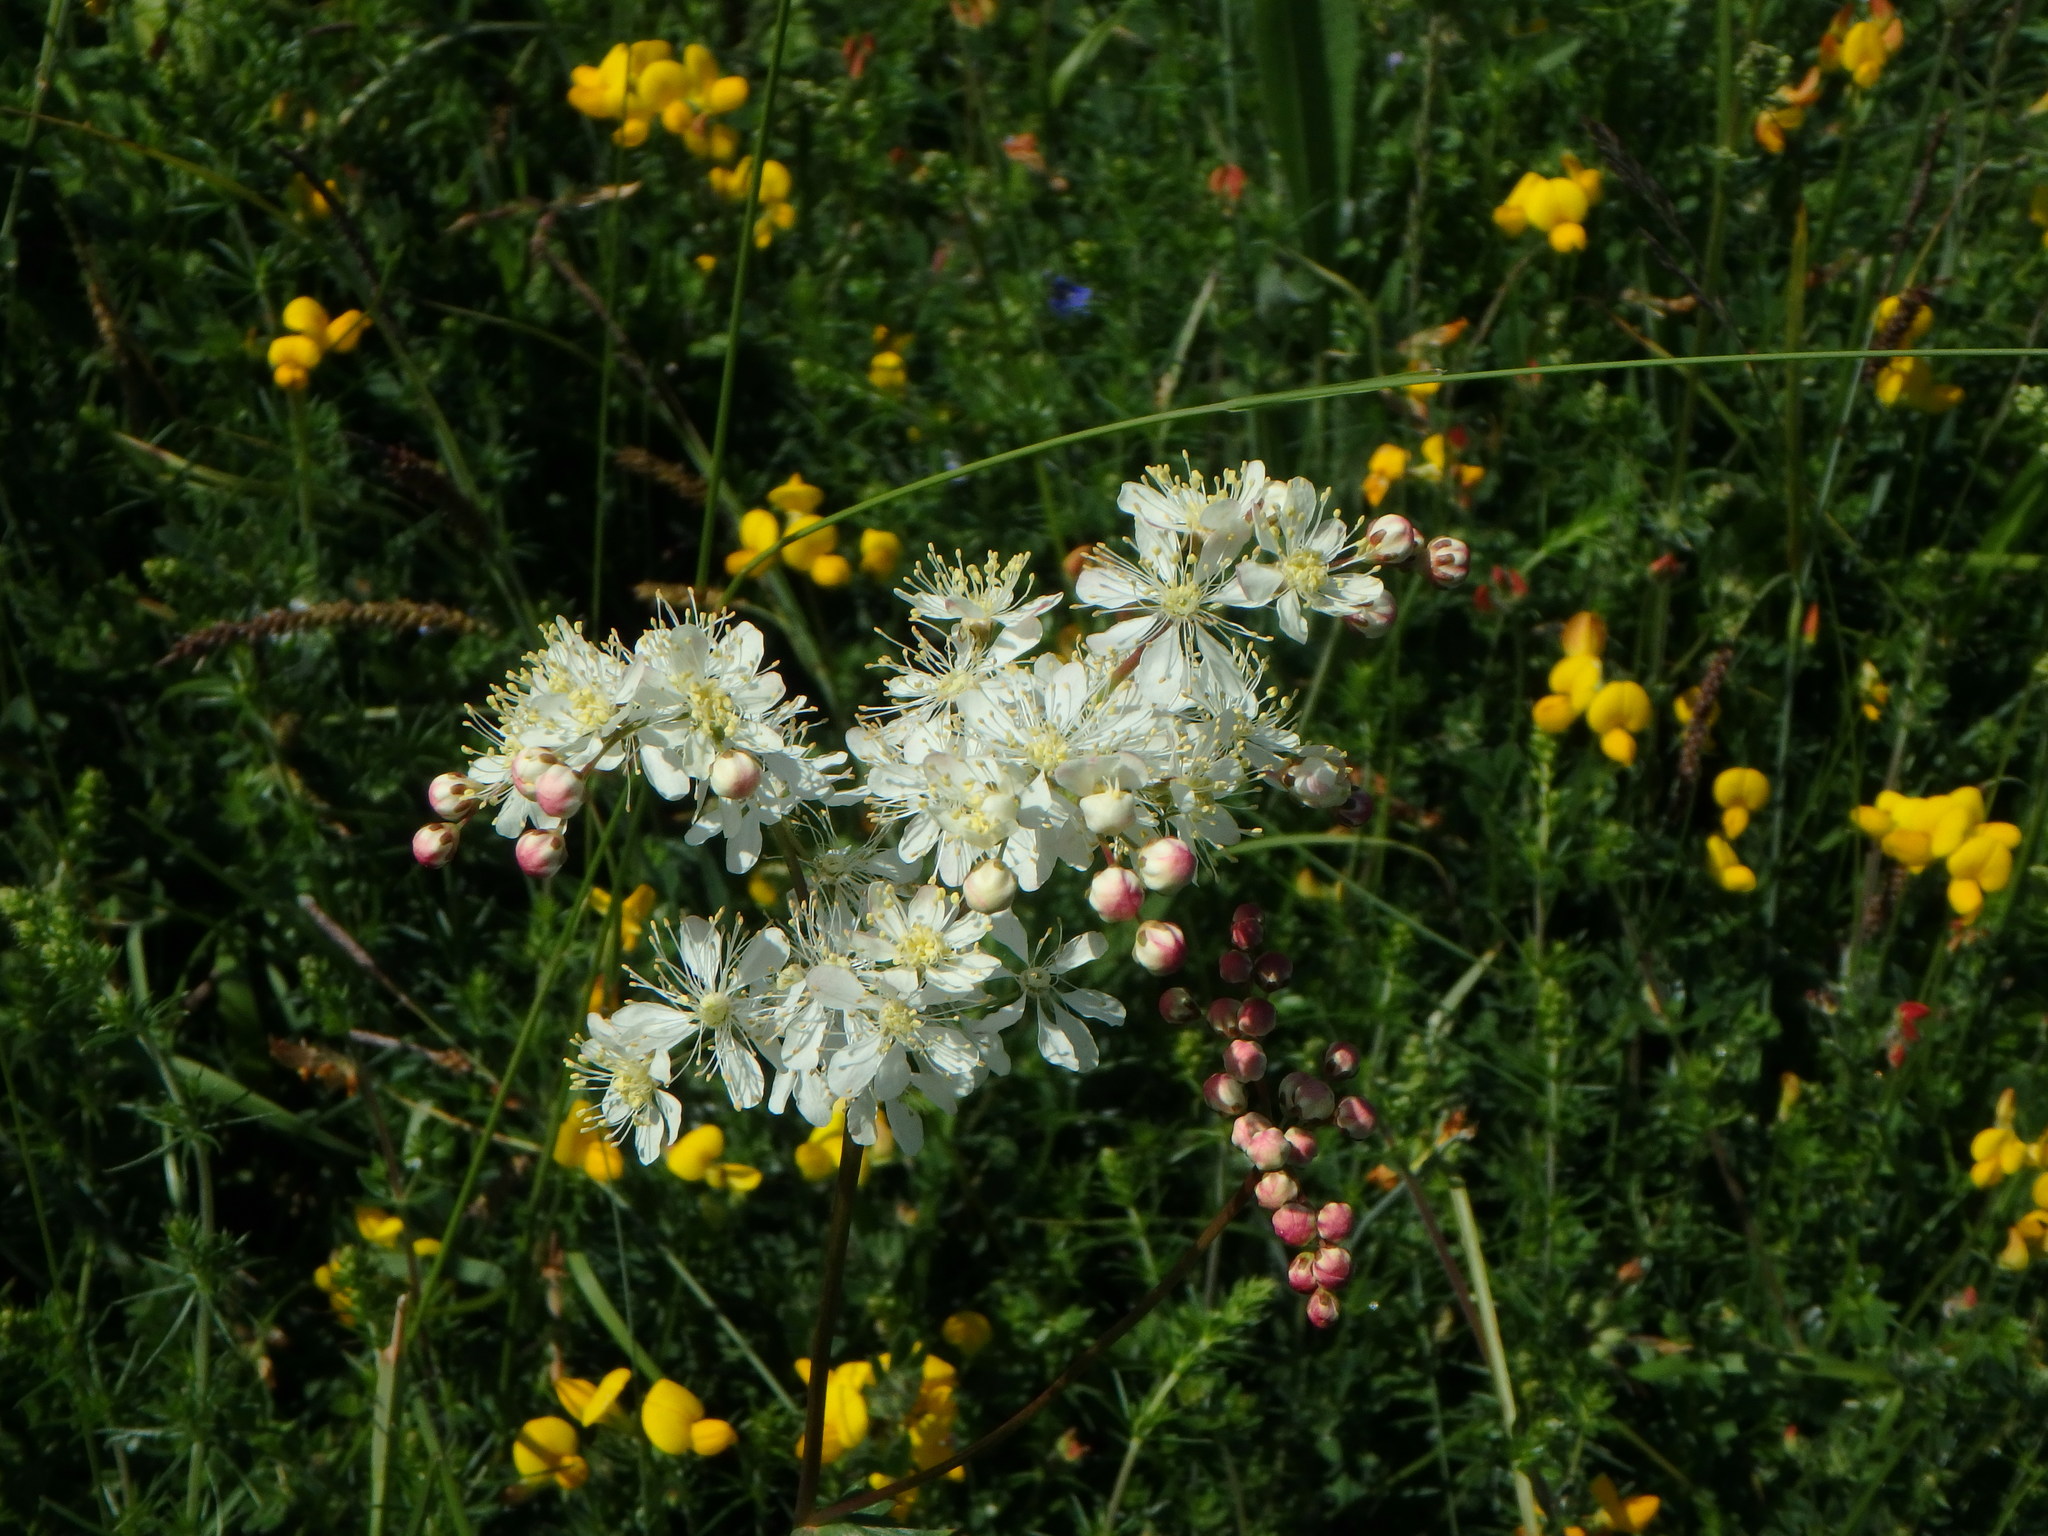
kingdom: Plantae
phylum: Tracheophyta
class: Magnoliopsida
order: Rosales
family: Rosaceae
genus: Filipendula
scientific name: Filipendula vulgaris
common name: Dropwort
